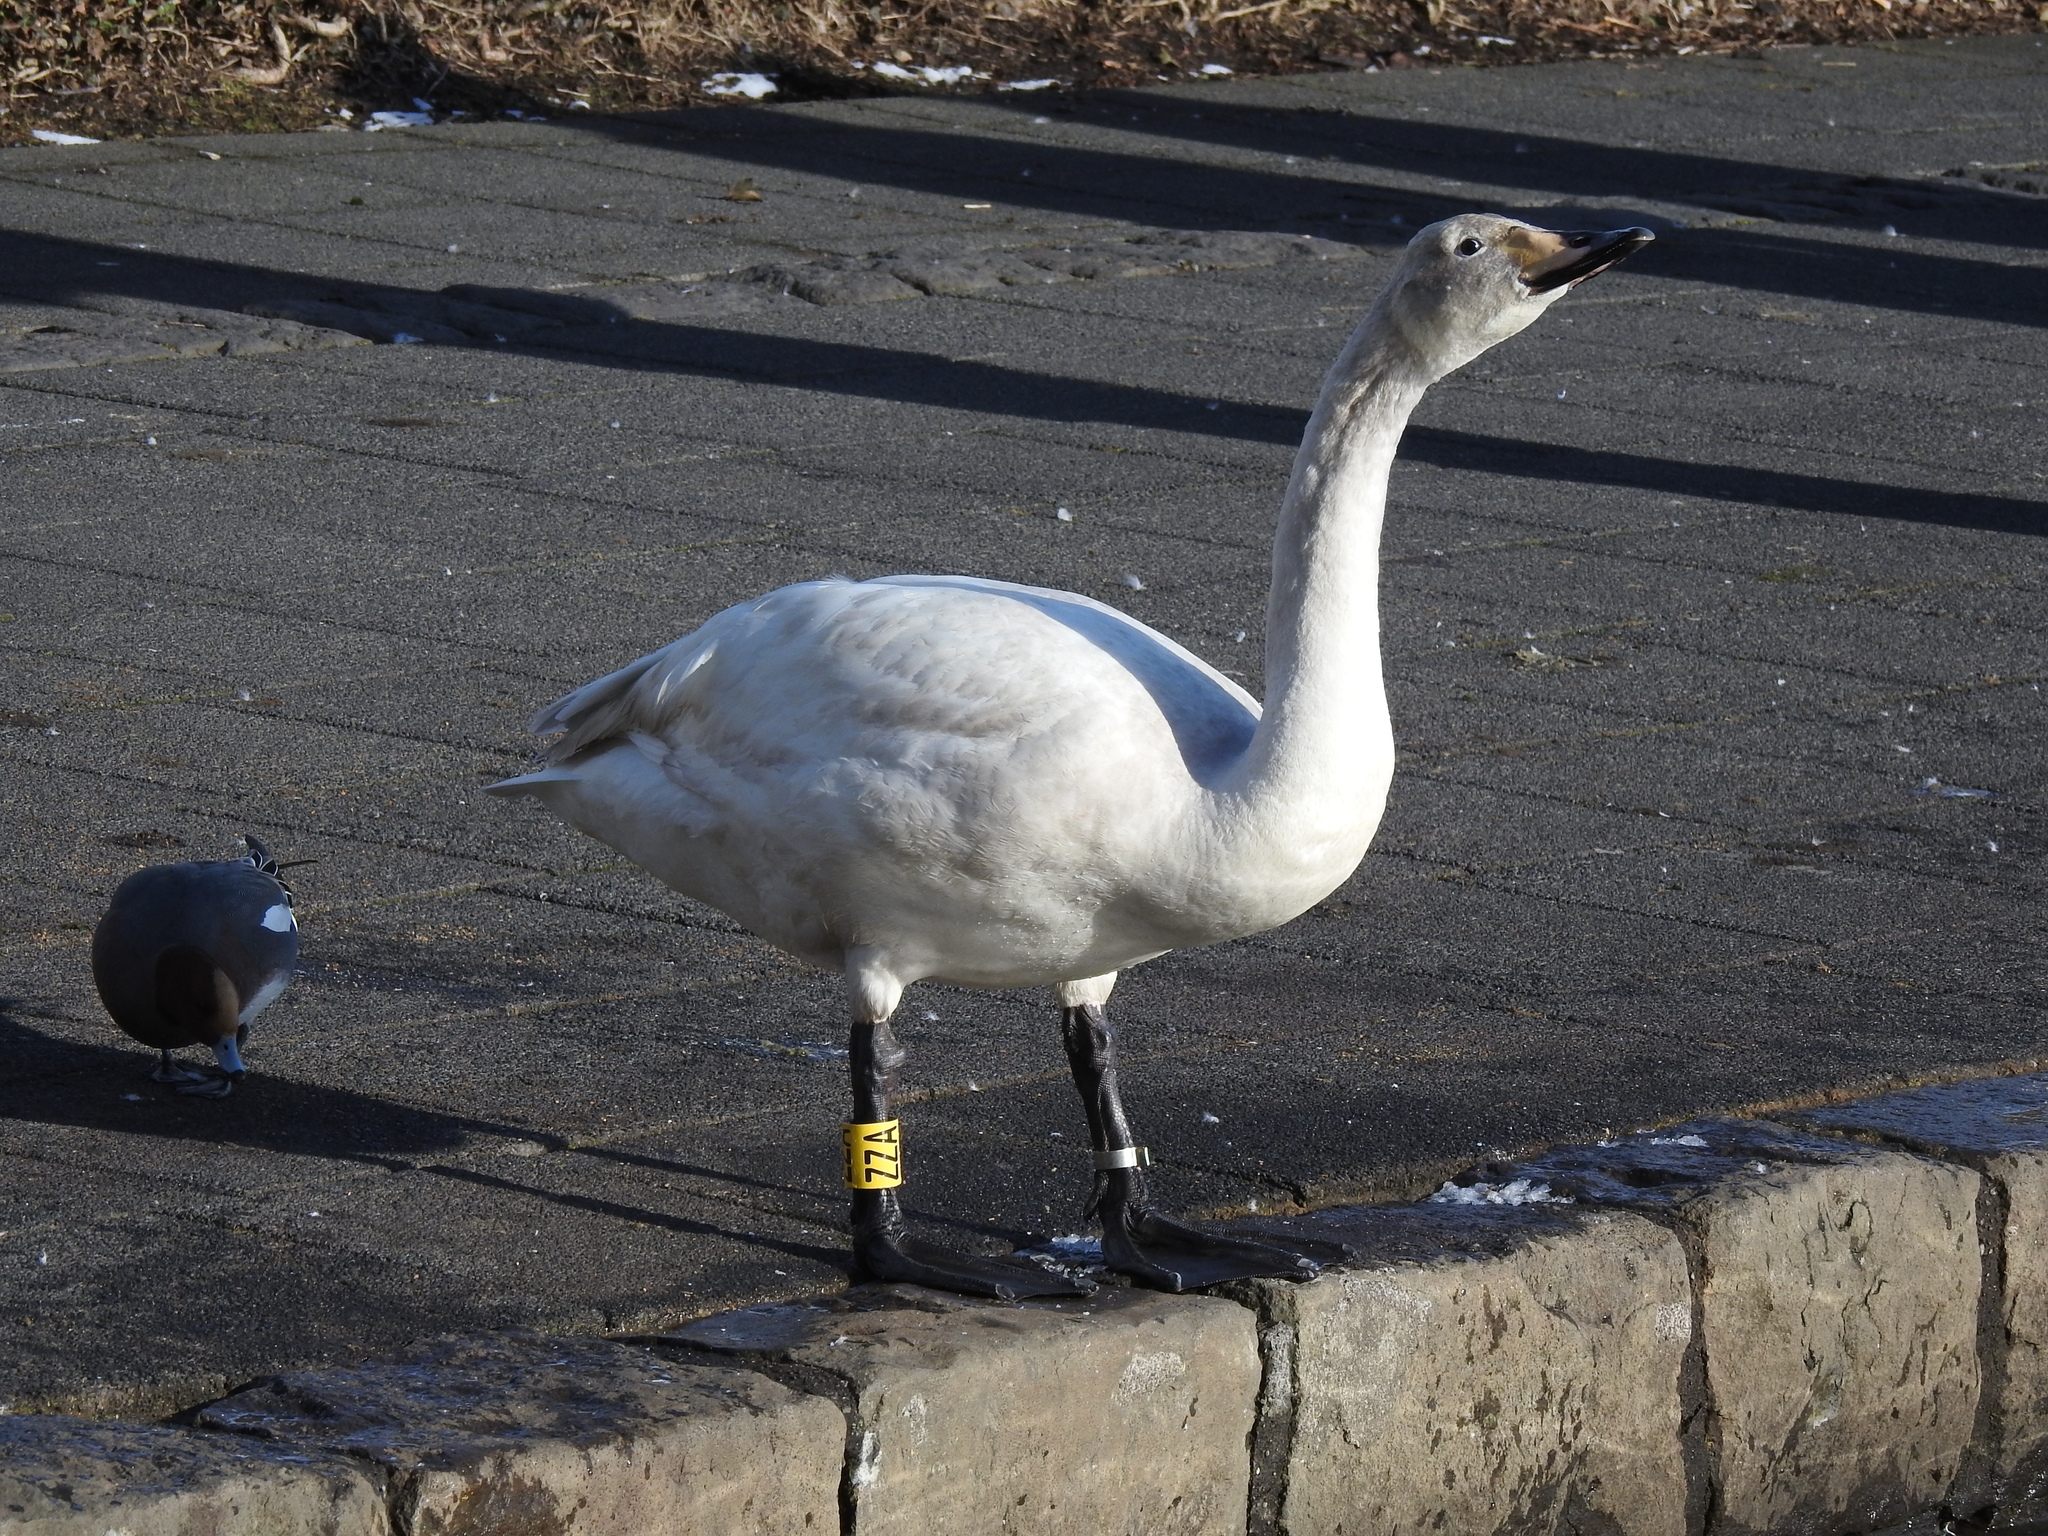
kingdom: Animalia
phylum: Chordata
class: Aves
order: Anseriformes
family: Anatidae
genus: Cygnus
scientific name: Cygnus cygnus
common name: Whooper swan
